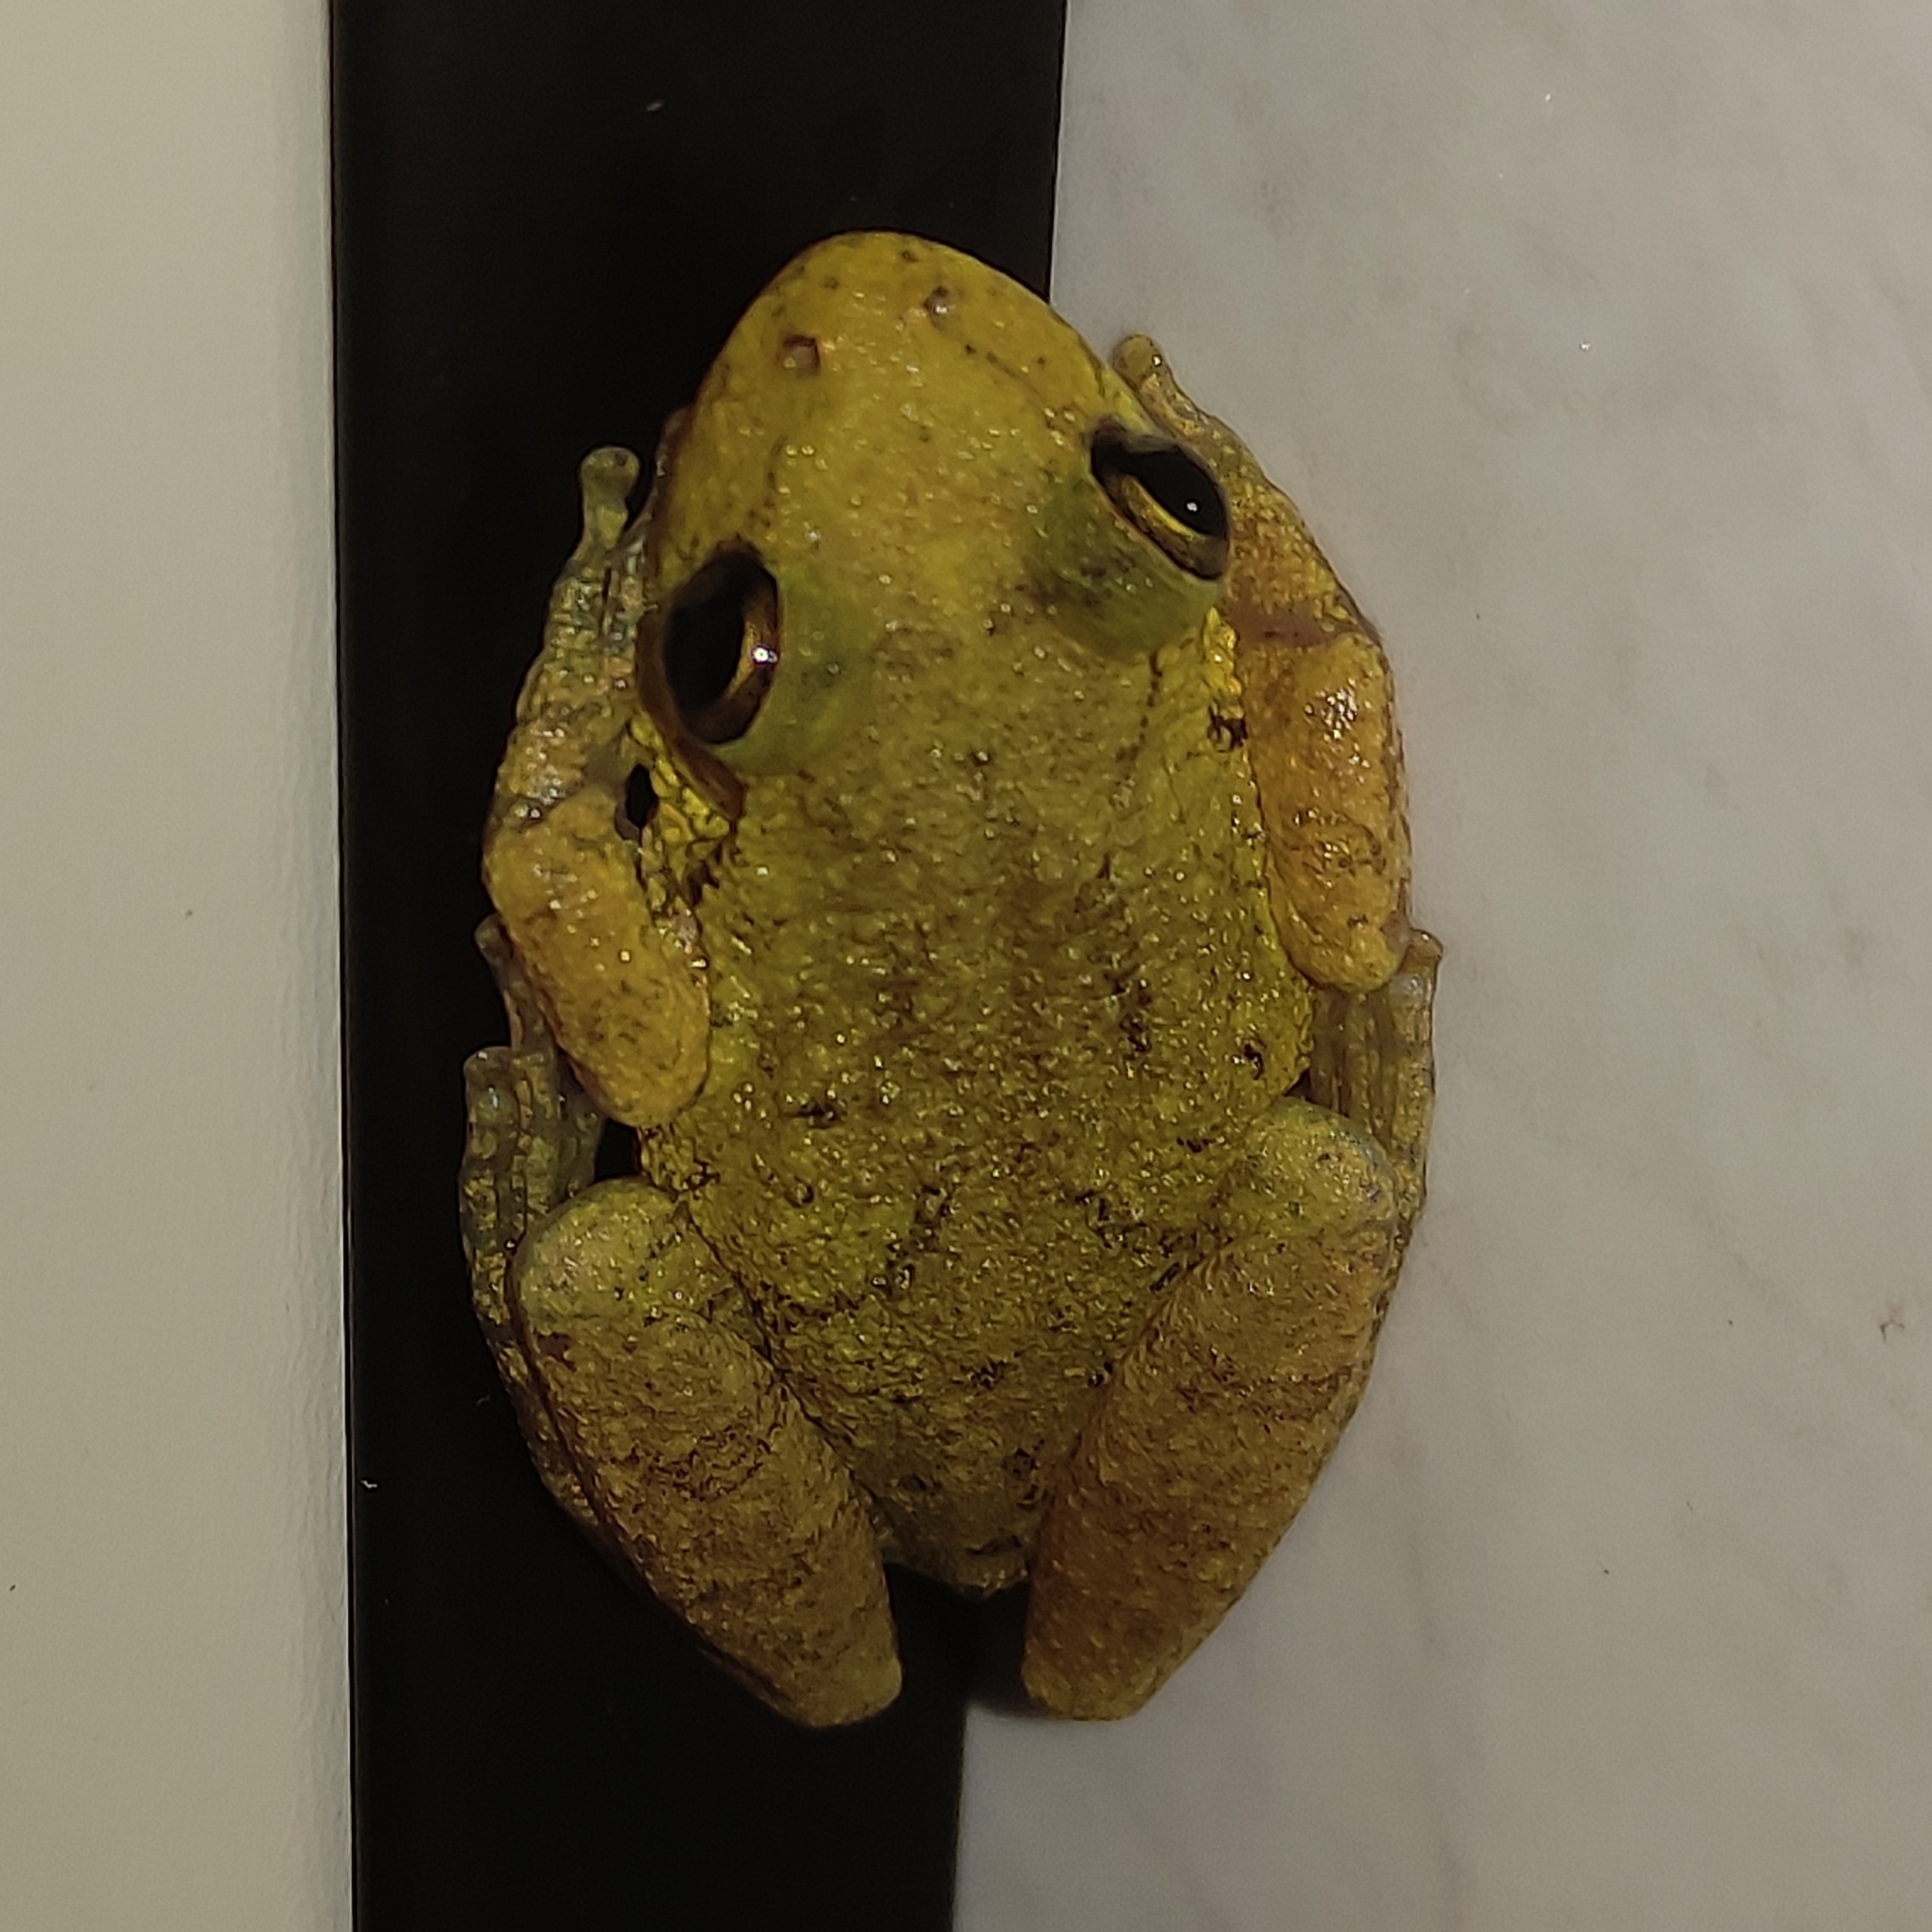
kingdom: Animalia
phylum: Chordata
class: Amphibia
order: Anura
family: Hylidae
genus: Scinax
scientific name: Scinax fuscovarius
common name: Fuscous-blotched treefrog
